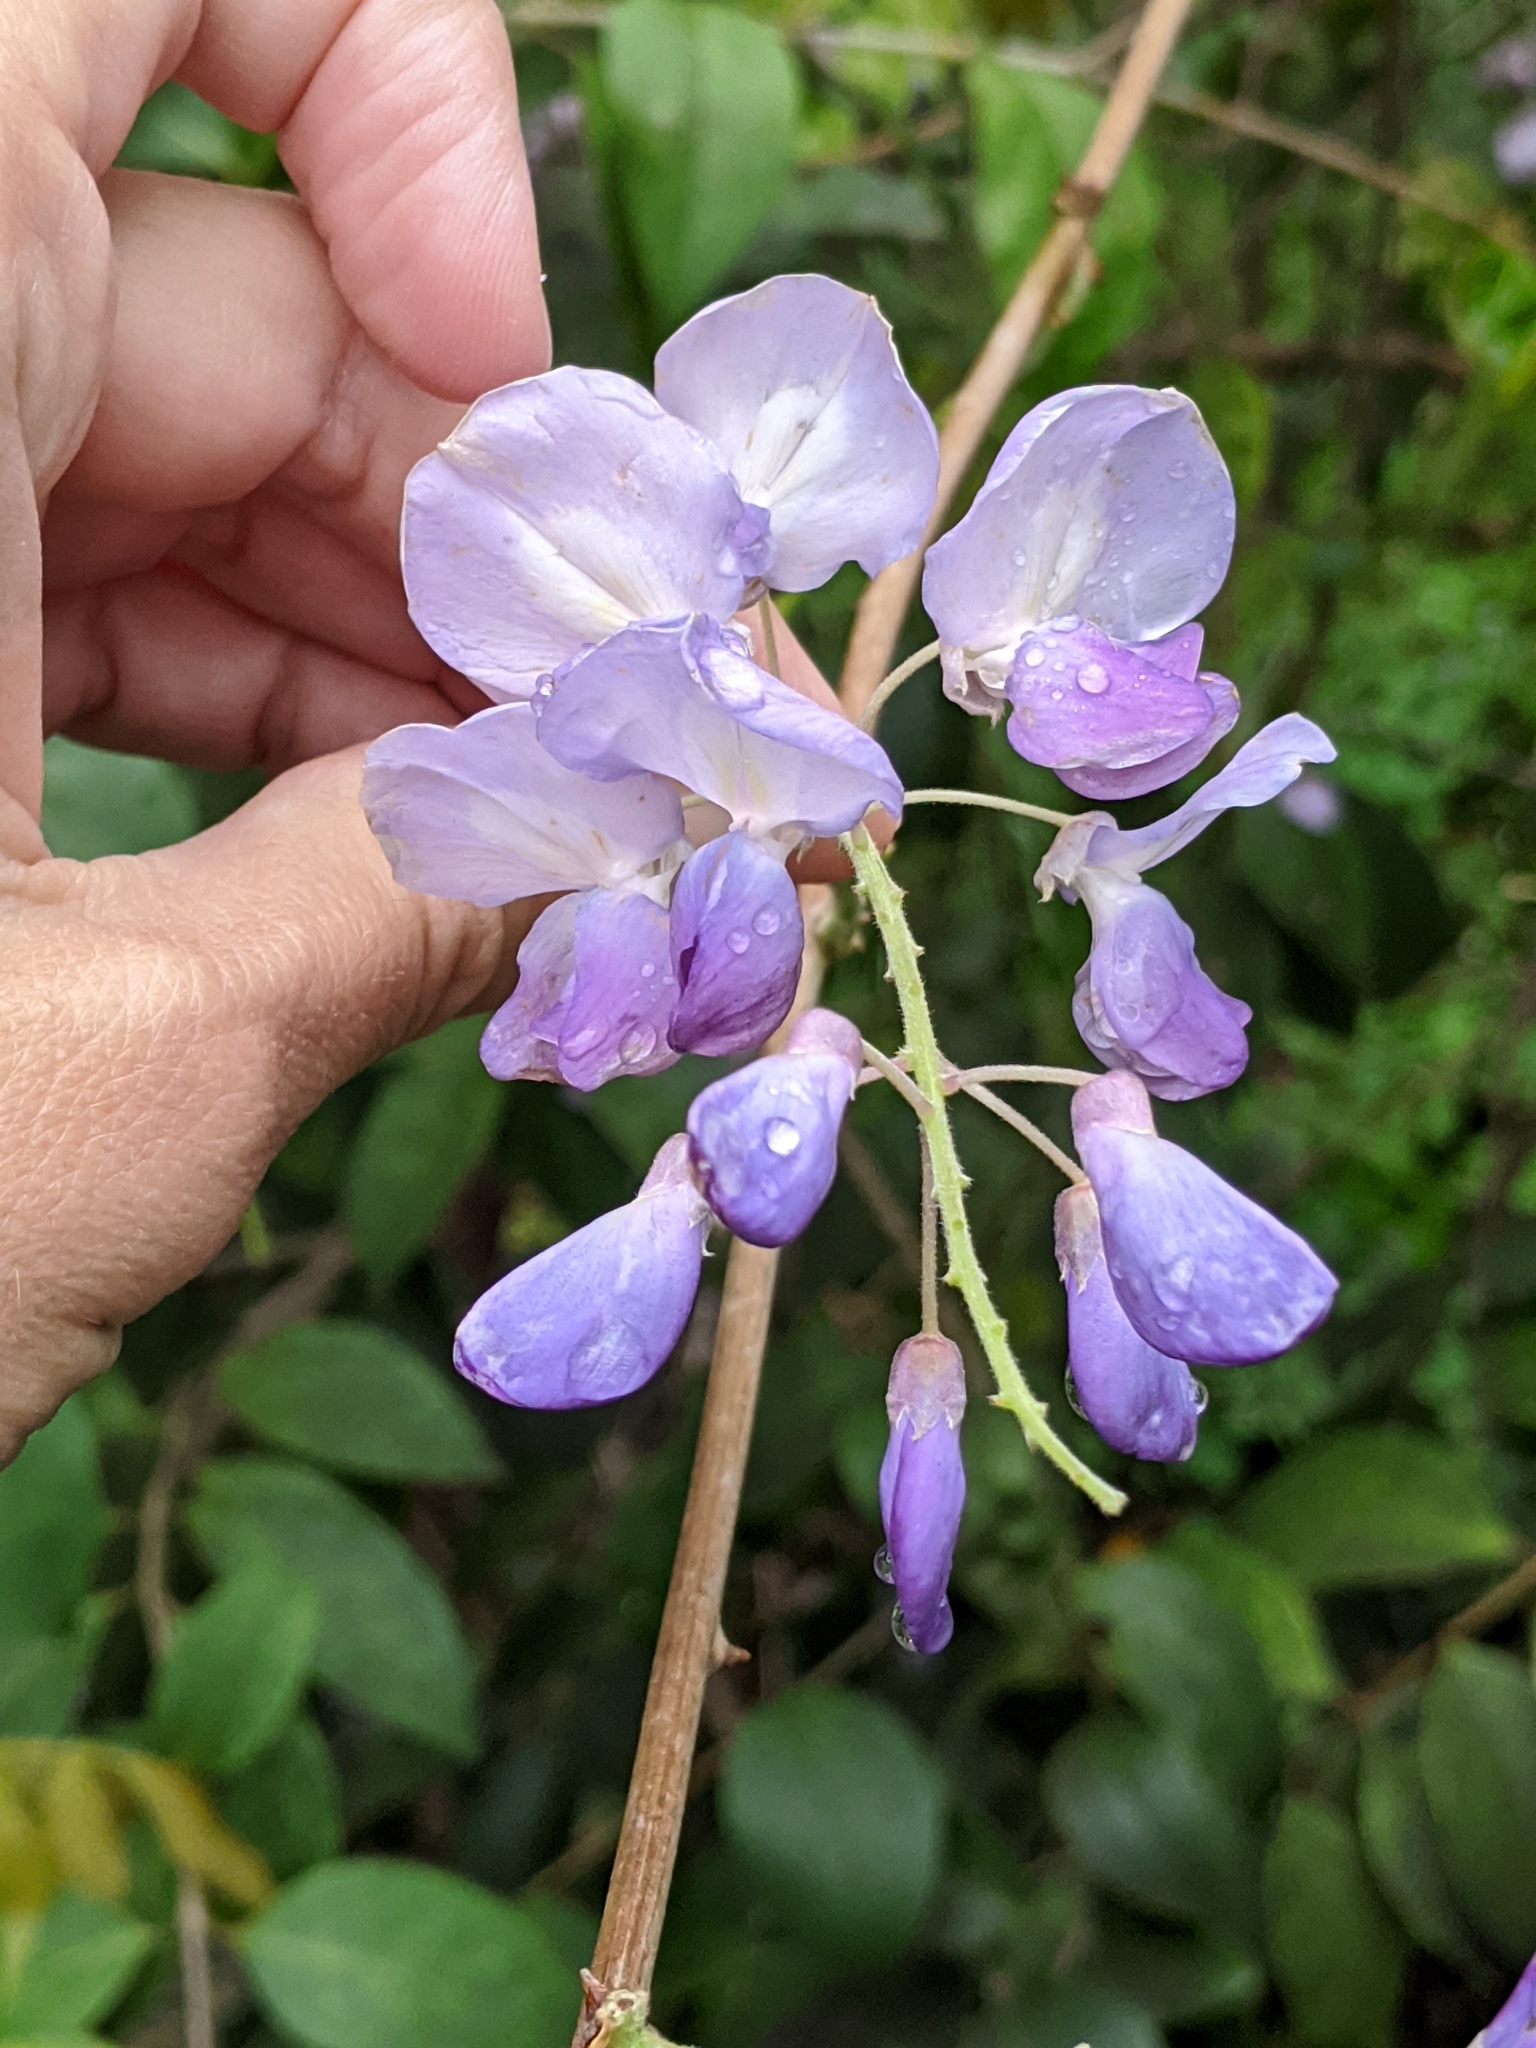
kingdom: Plantae
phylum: Tracheophyta
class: Magnoliopsida
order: Fabales
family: Fabaceae
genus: Wisteria
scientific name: Wisteria sinensis
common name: Chinese wisteria
